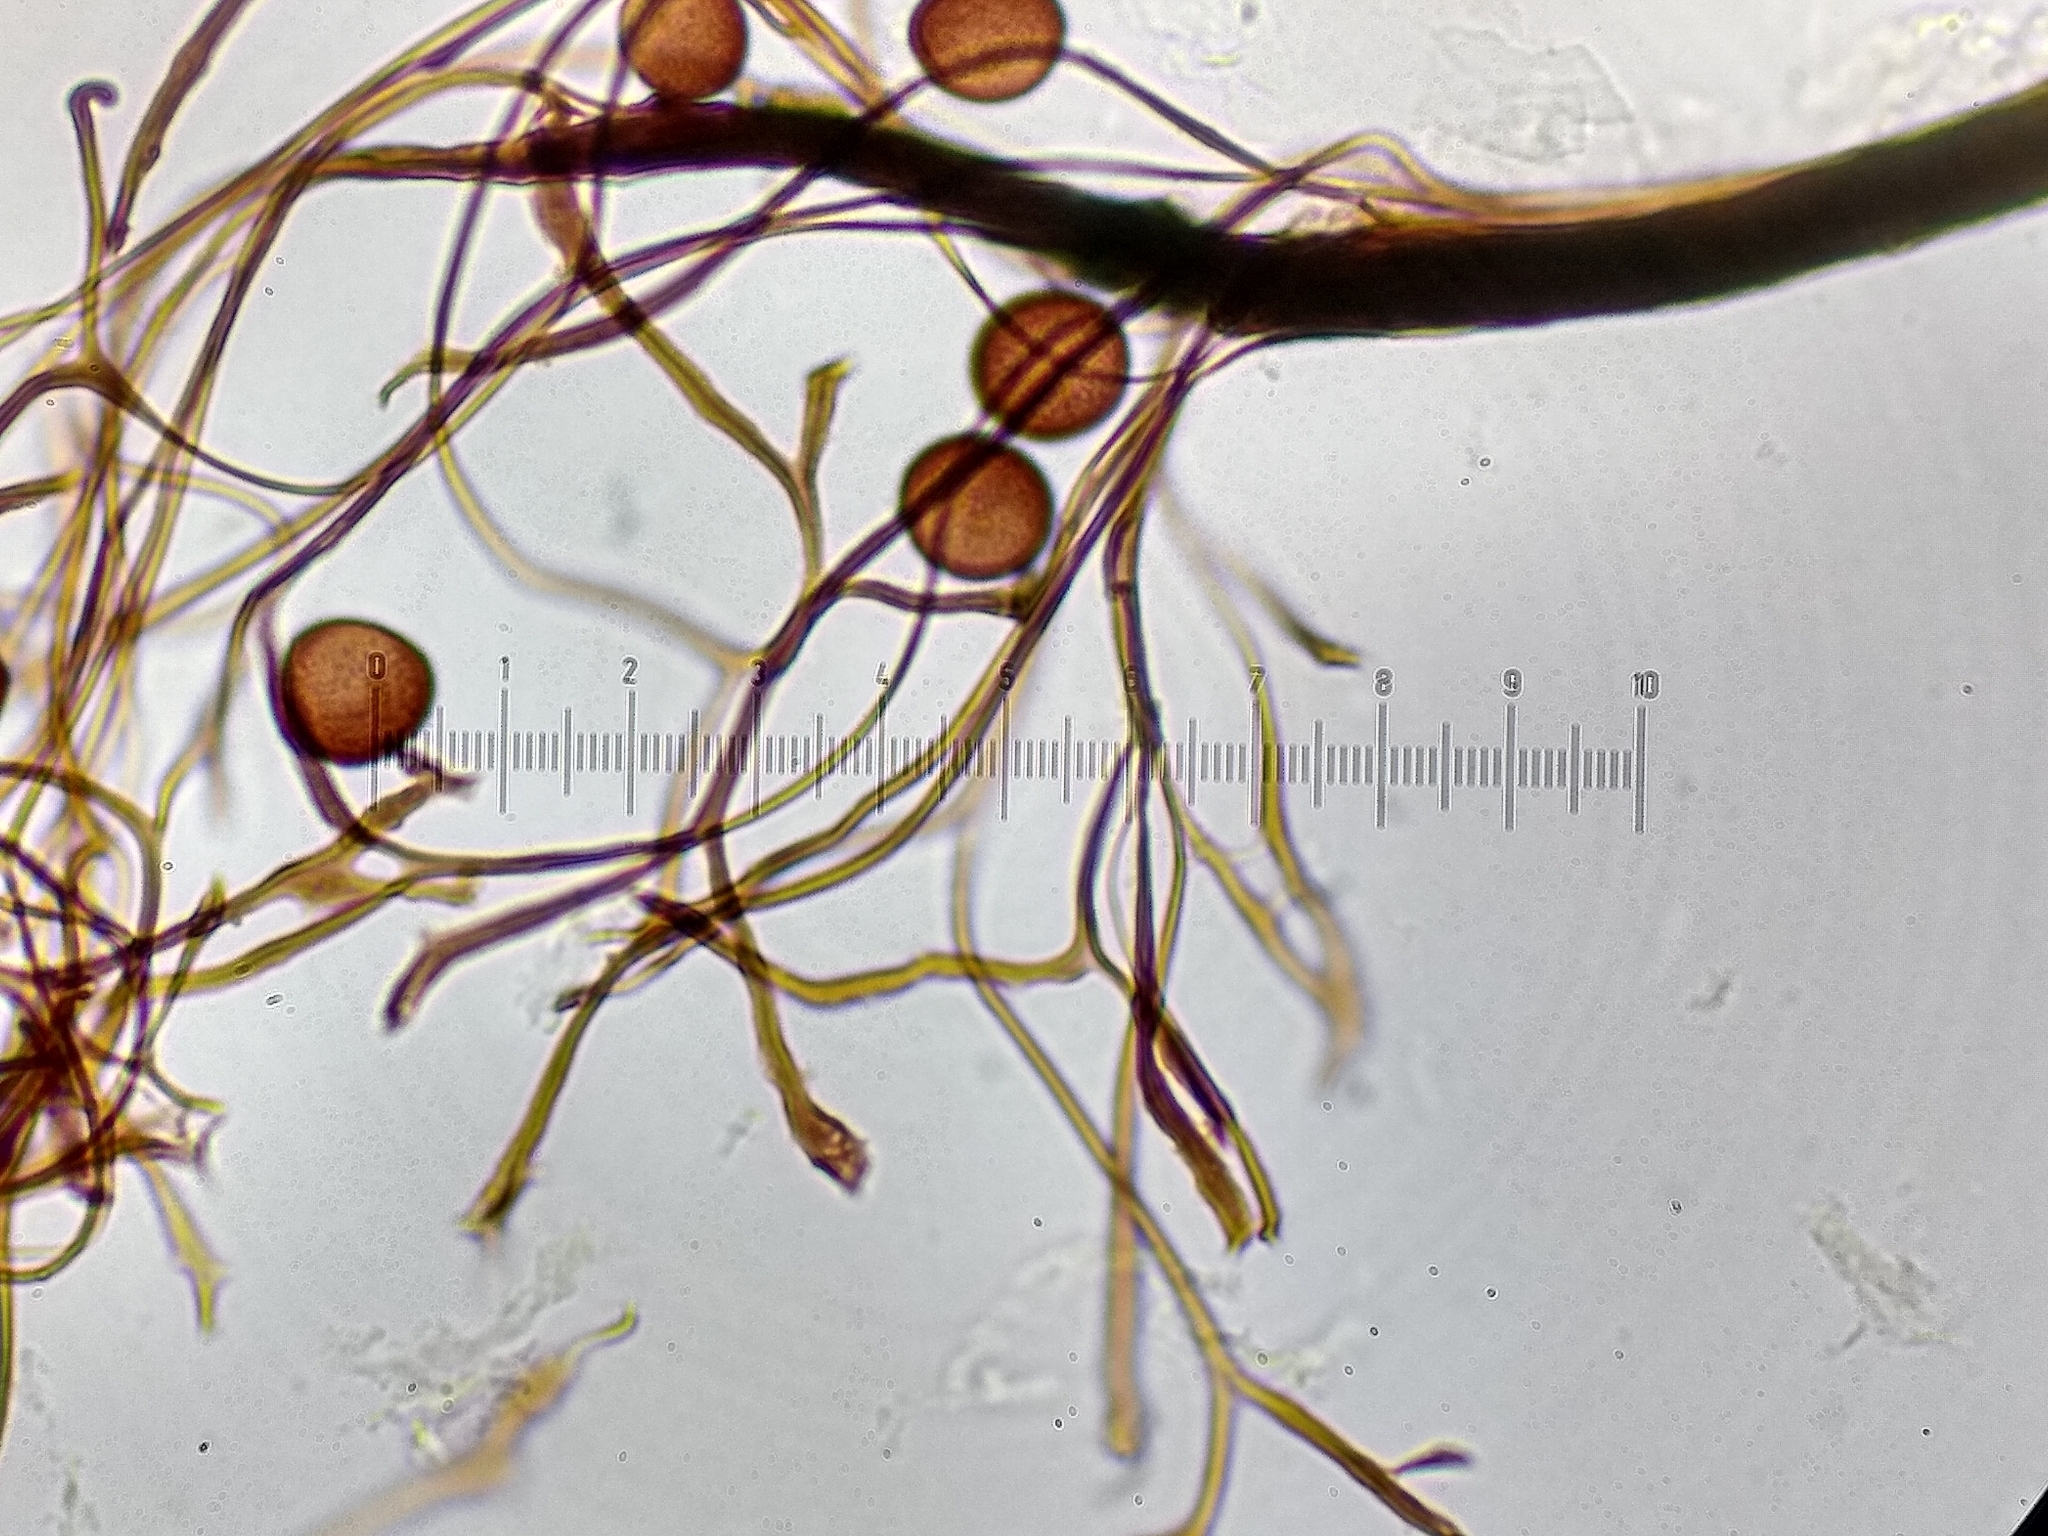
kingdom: Protozoa
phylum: Mycetozoa
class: Myxomycetes
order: Stemonitidales
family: Stemonitidaceae
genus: Paradiacheopsis
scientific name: Paradiacheopsis fimbriata
